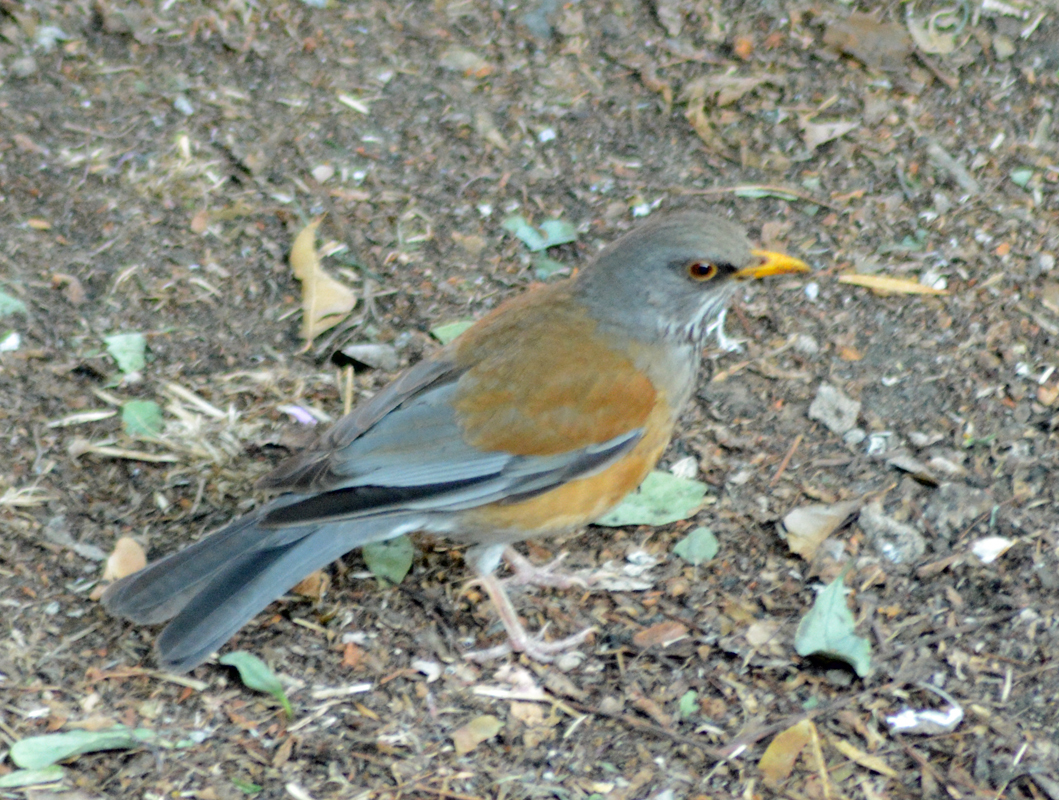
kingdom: Animalia
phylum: Chordata
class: Aves
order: Passeriformes
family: Turdidae
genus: Turdus
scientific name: Turdus rufopalliatus
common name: Rufous-backed robin
